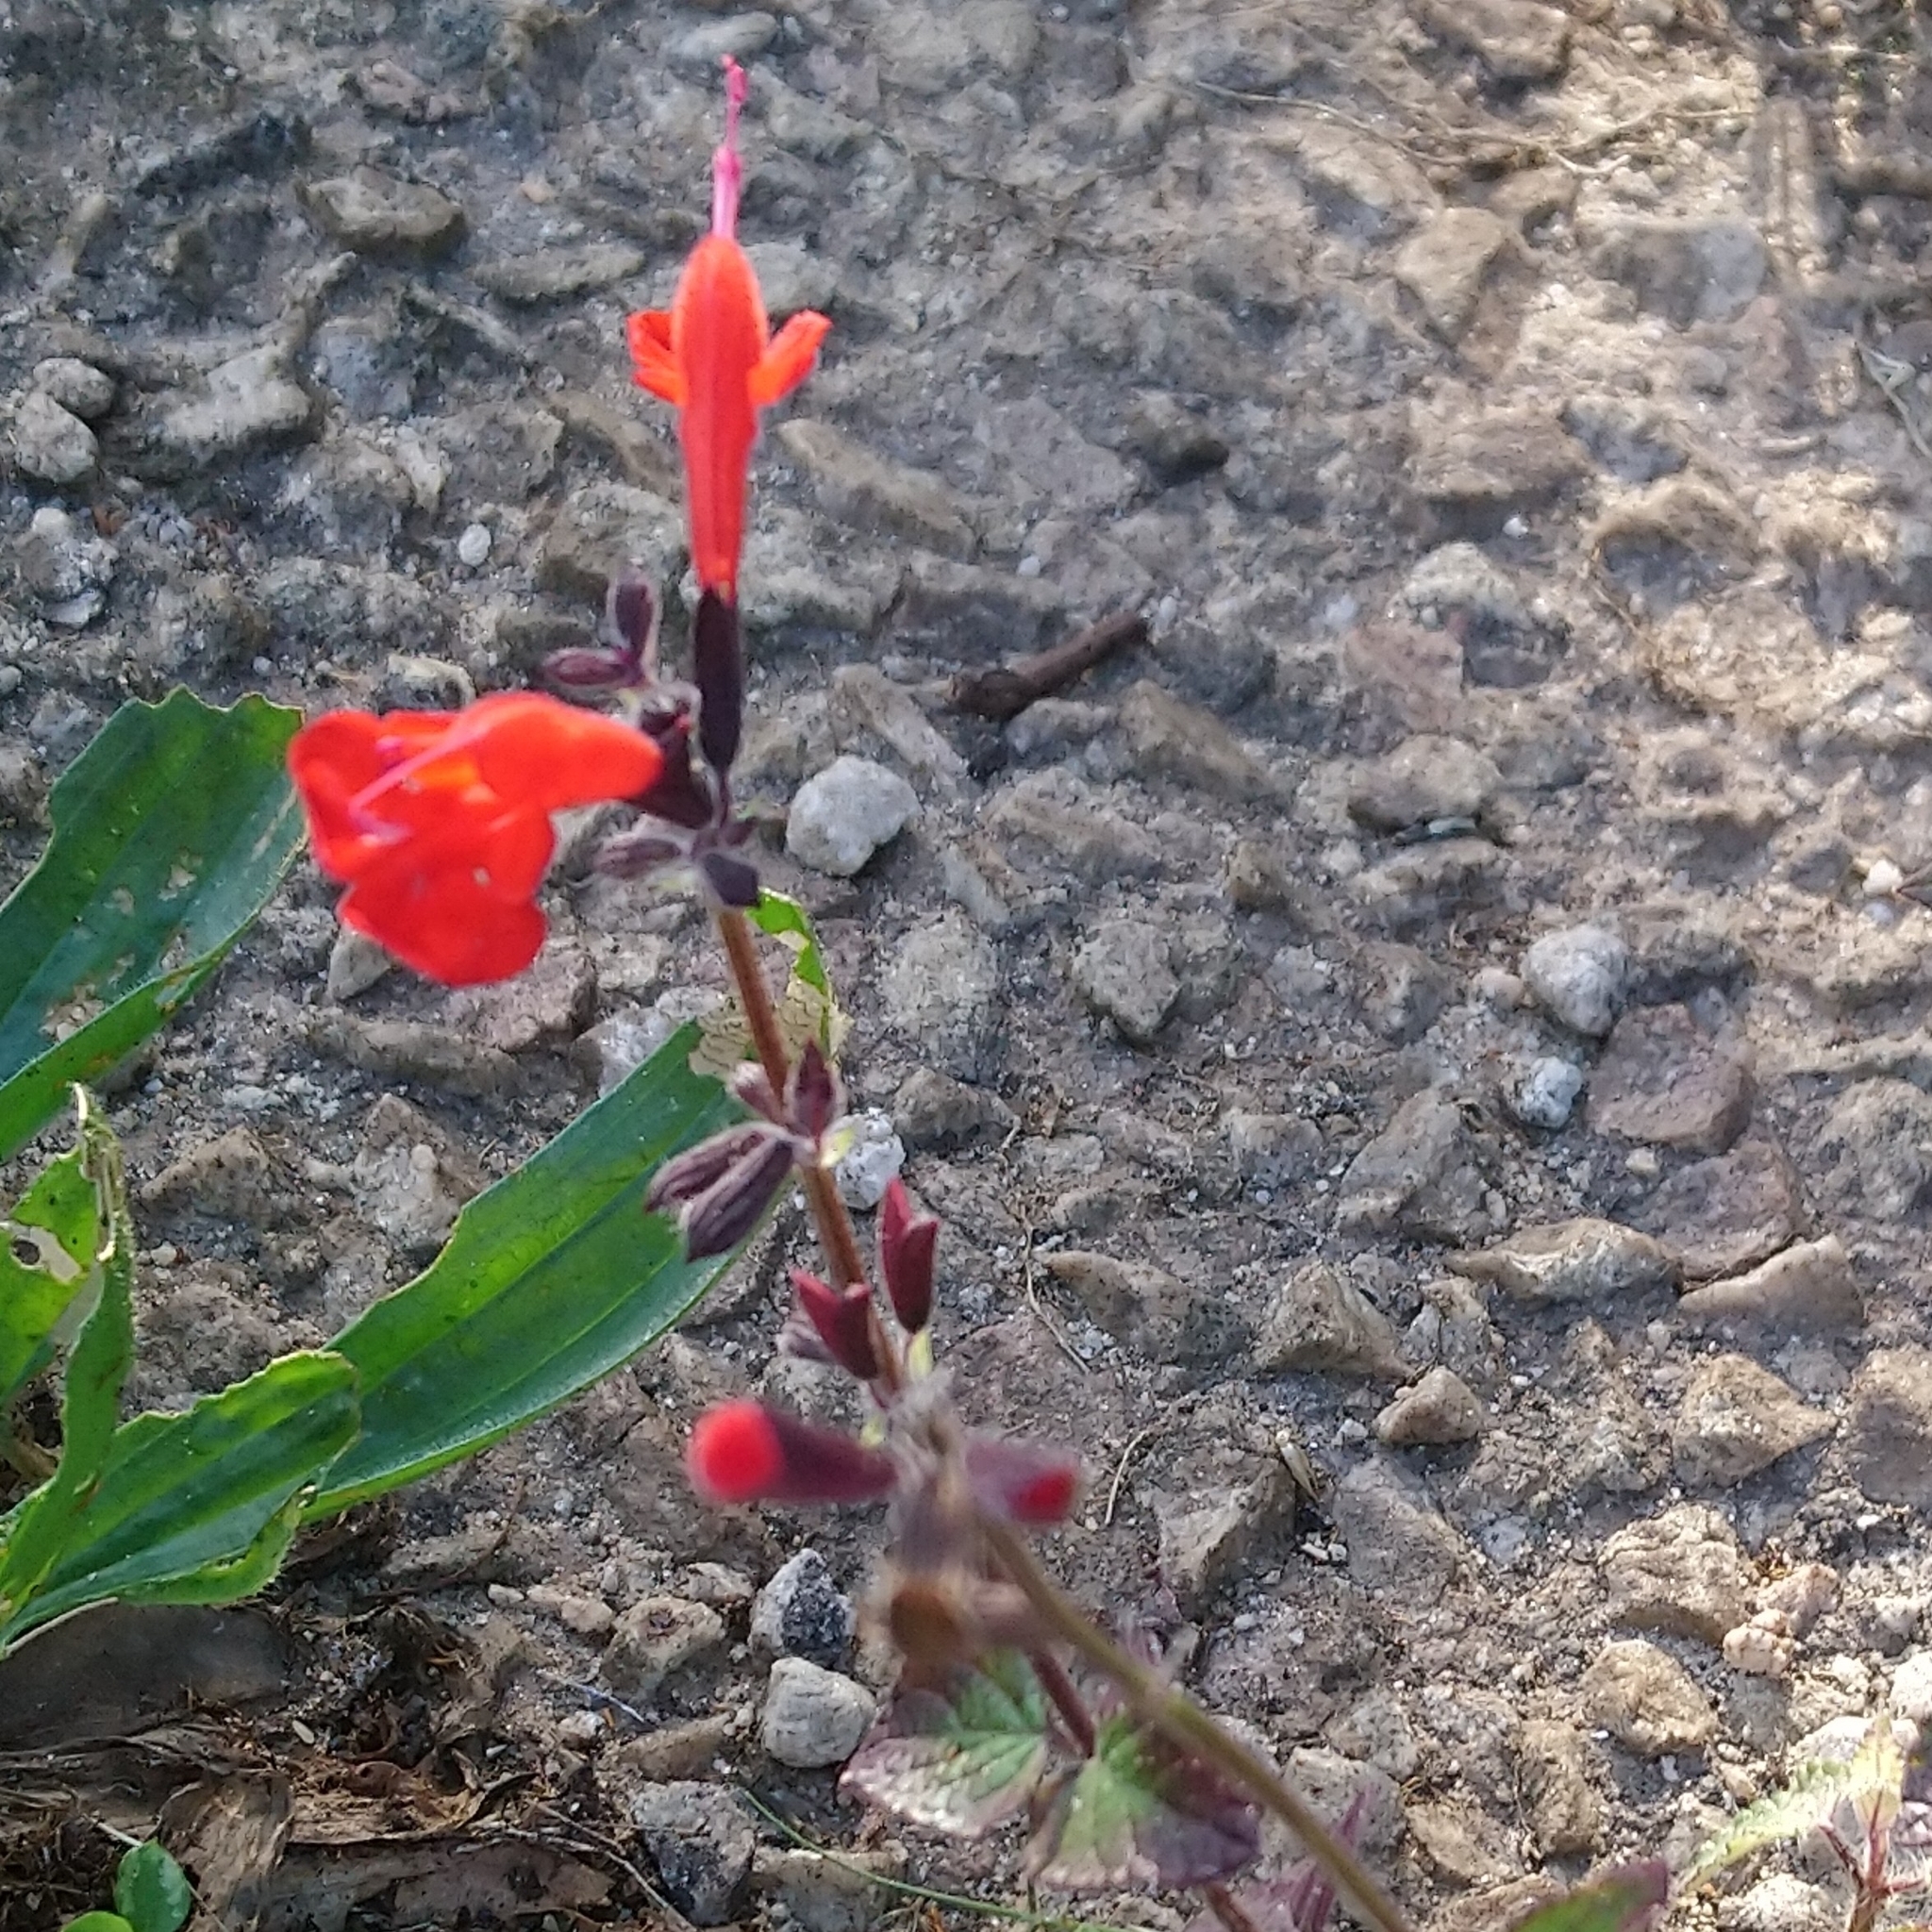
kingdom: Plantae
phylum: Tracheophyta
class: Magnoliopsida
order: Lamiales
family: Lamiaceae
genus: Salvia
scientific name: Salvia coccinea
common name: Blood sage
